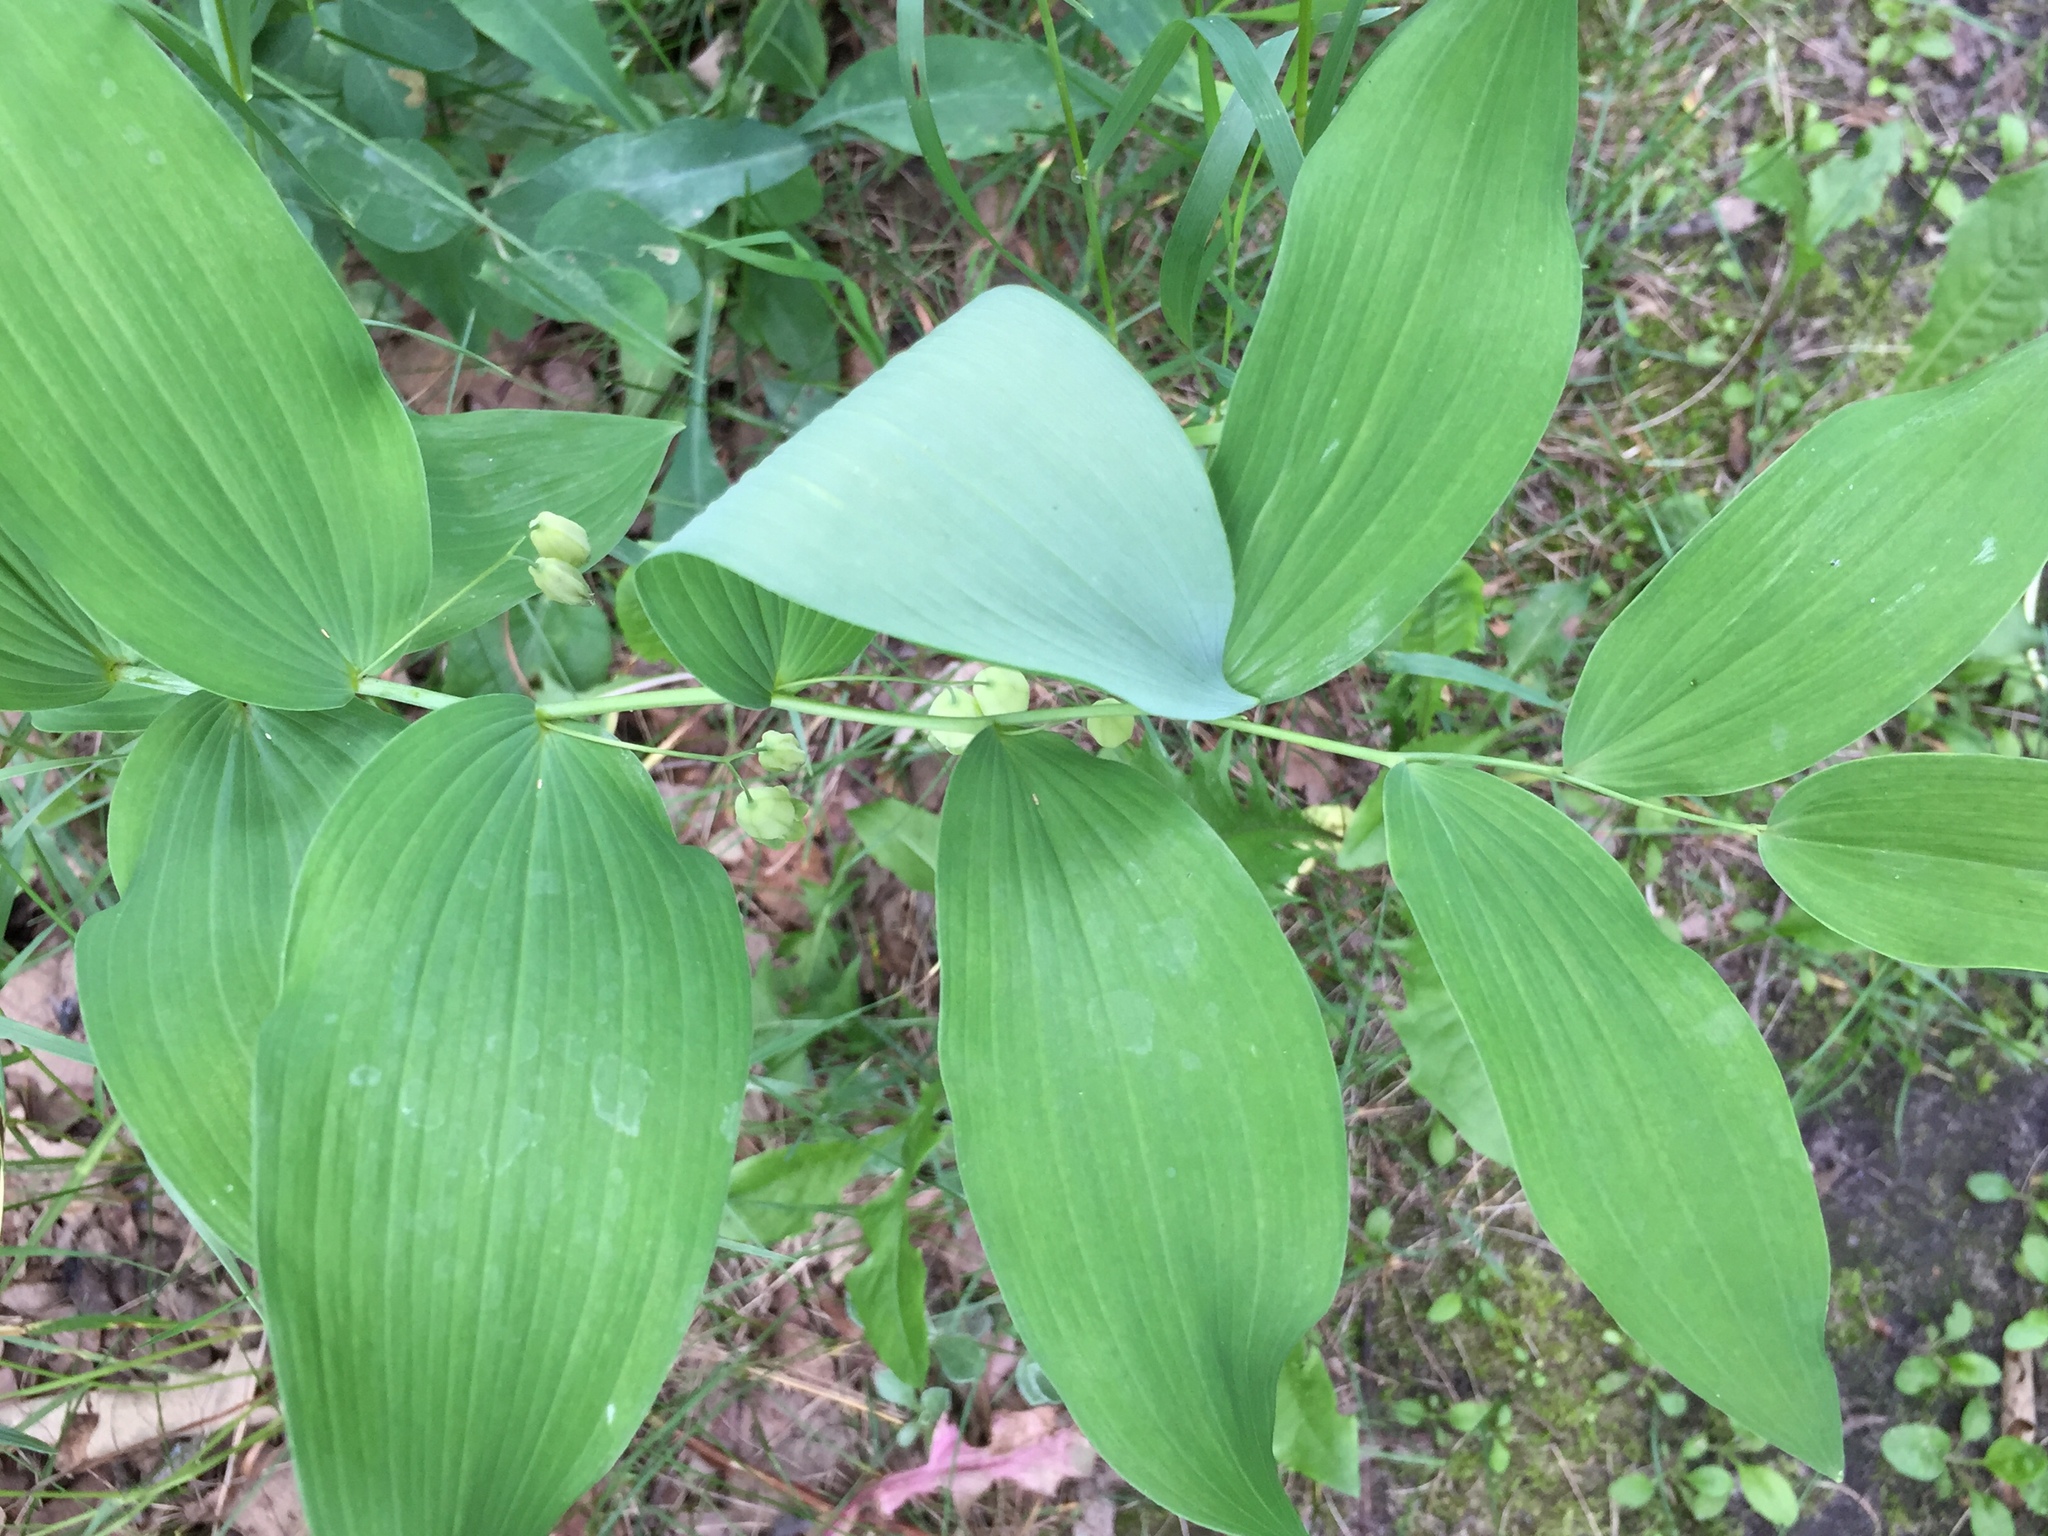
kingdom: Plantae
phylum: Tracheophyta
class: Liliopsida
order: Asparagales
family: Asparagaceae
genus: Polygonatum
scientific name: Polygonatum biflorum
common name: American solomon's-seal
